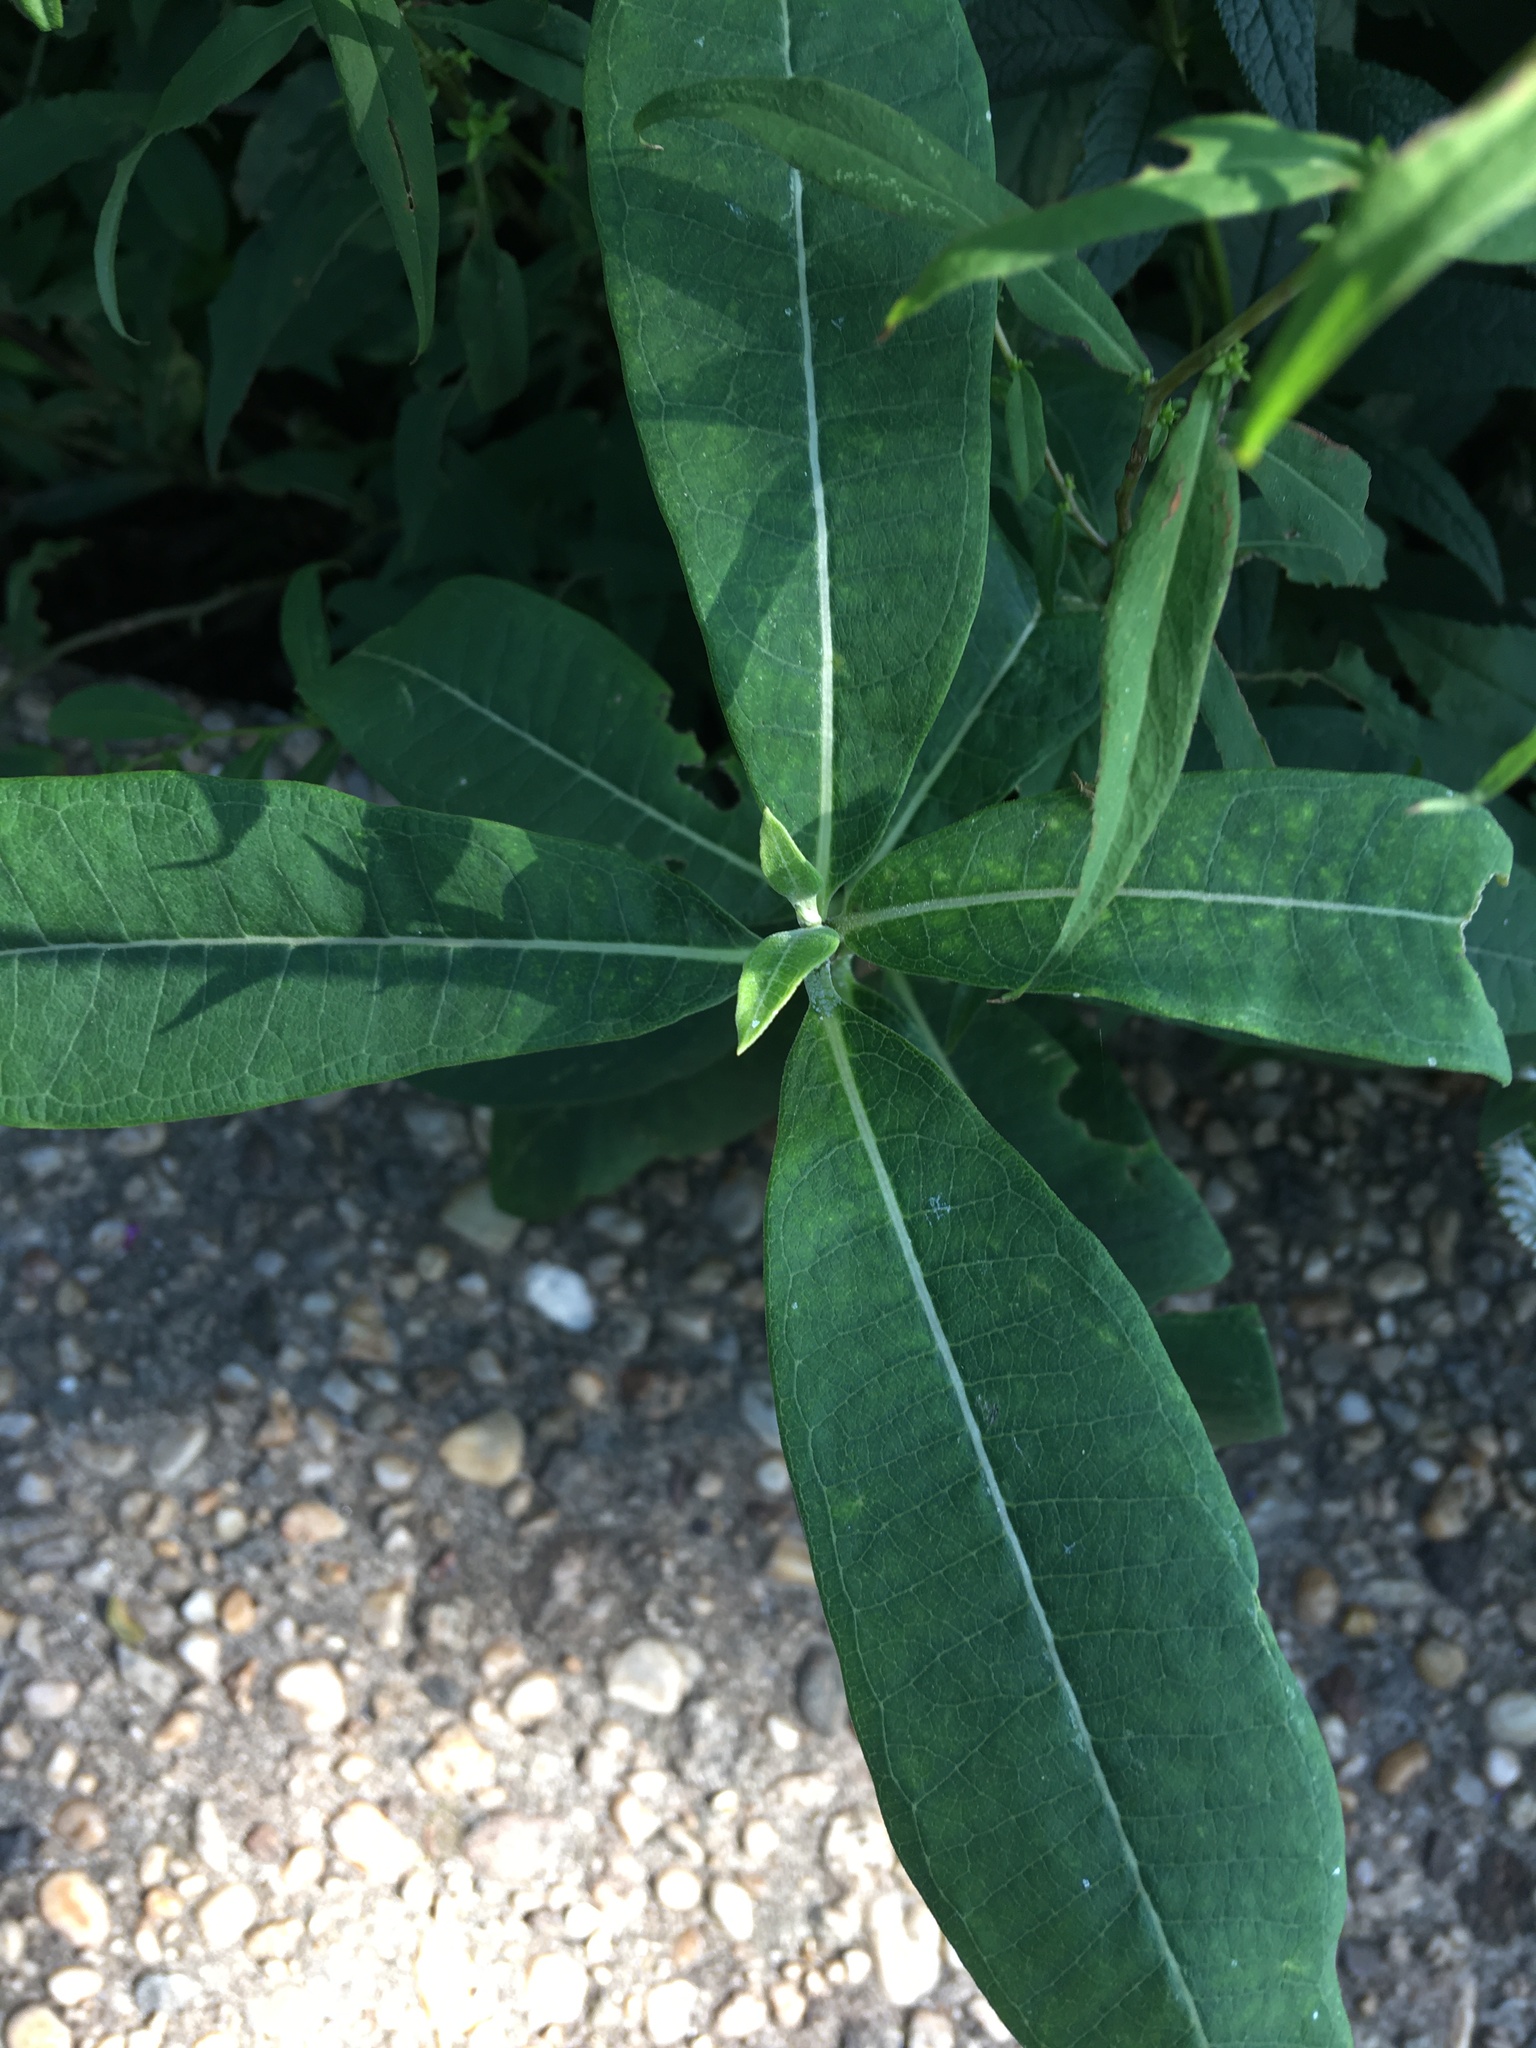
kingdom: Plantae
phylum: Tracheophyta
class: Magnoliopsida
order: Gentianales
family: Apocynaceae
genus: Asclepias
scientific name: Asclepias syriaca
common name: Common milkweed
